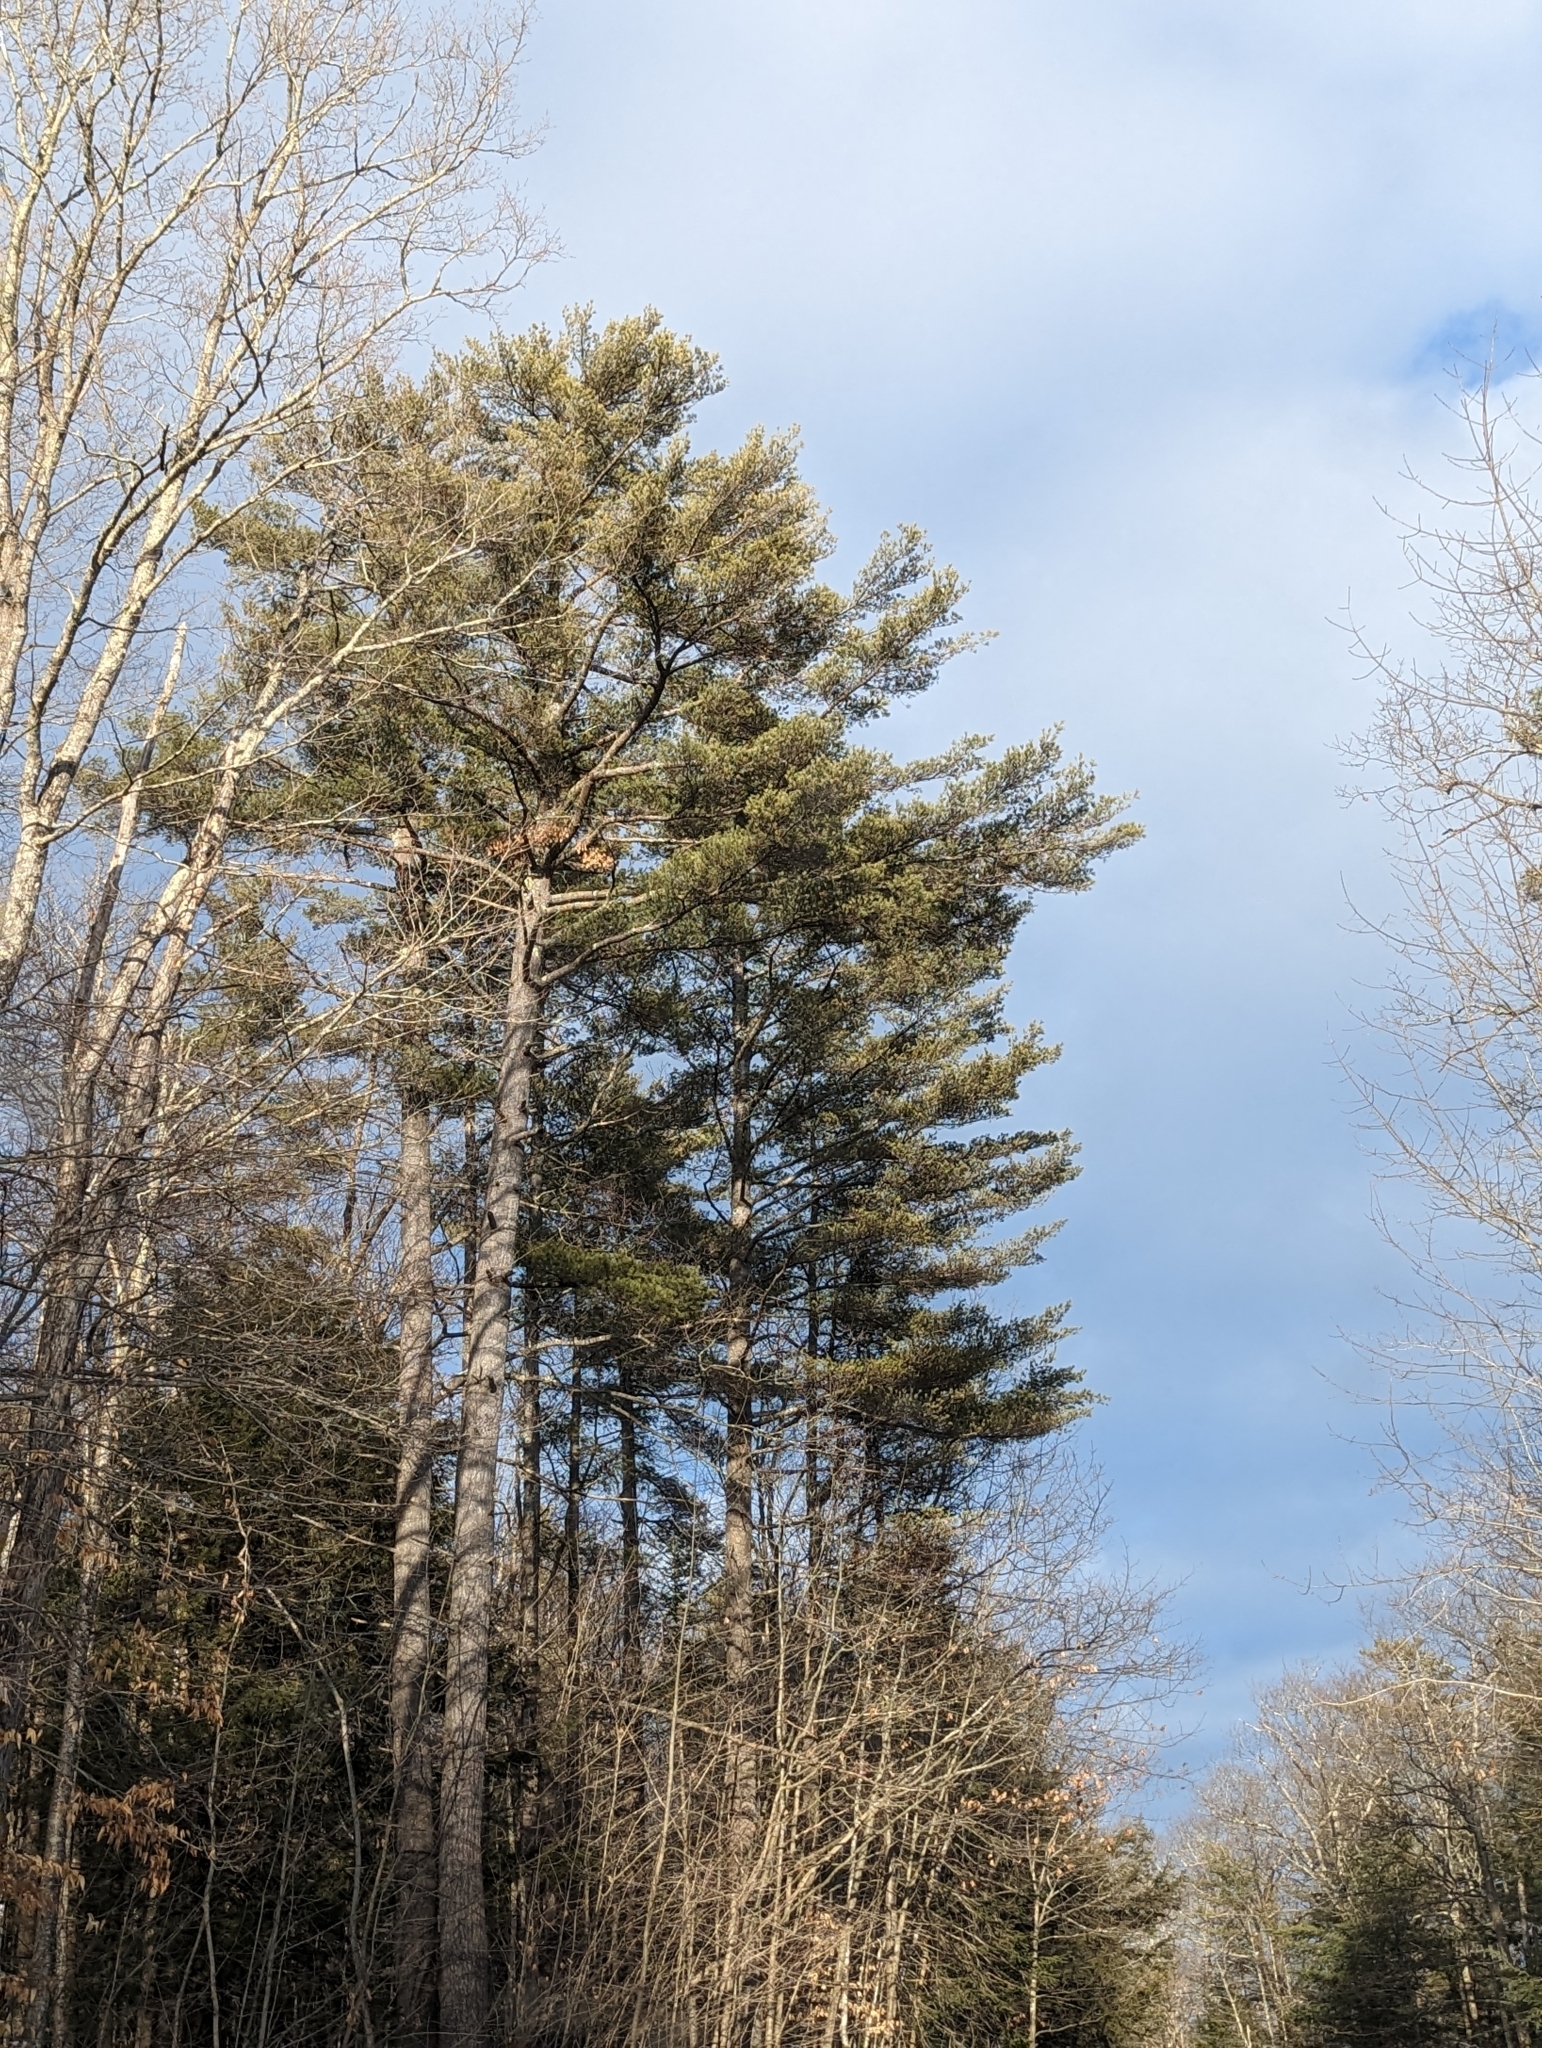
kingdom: Plantae
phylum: Tracheophyta
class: Pinopsida
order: Pinales
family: Pinaceae
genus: Pinus
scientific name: Pinus strobus
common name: Weymouth pine
